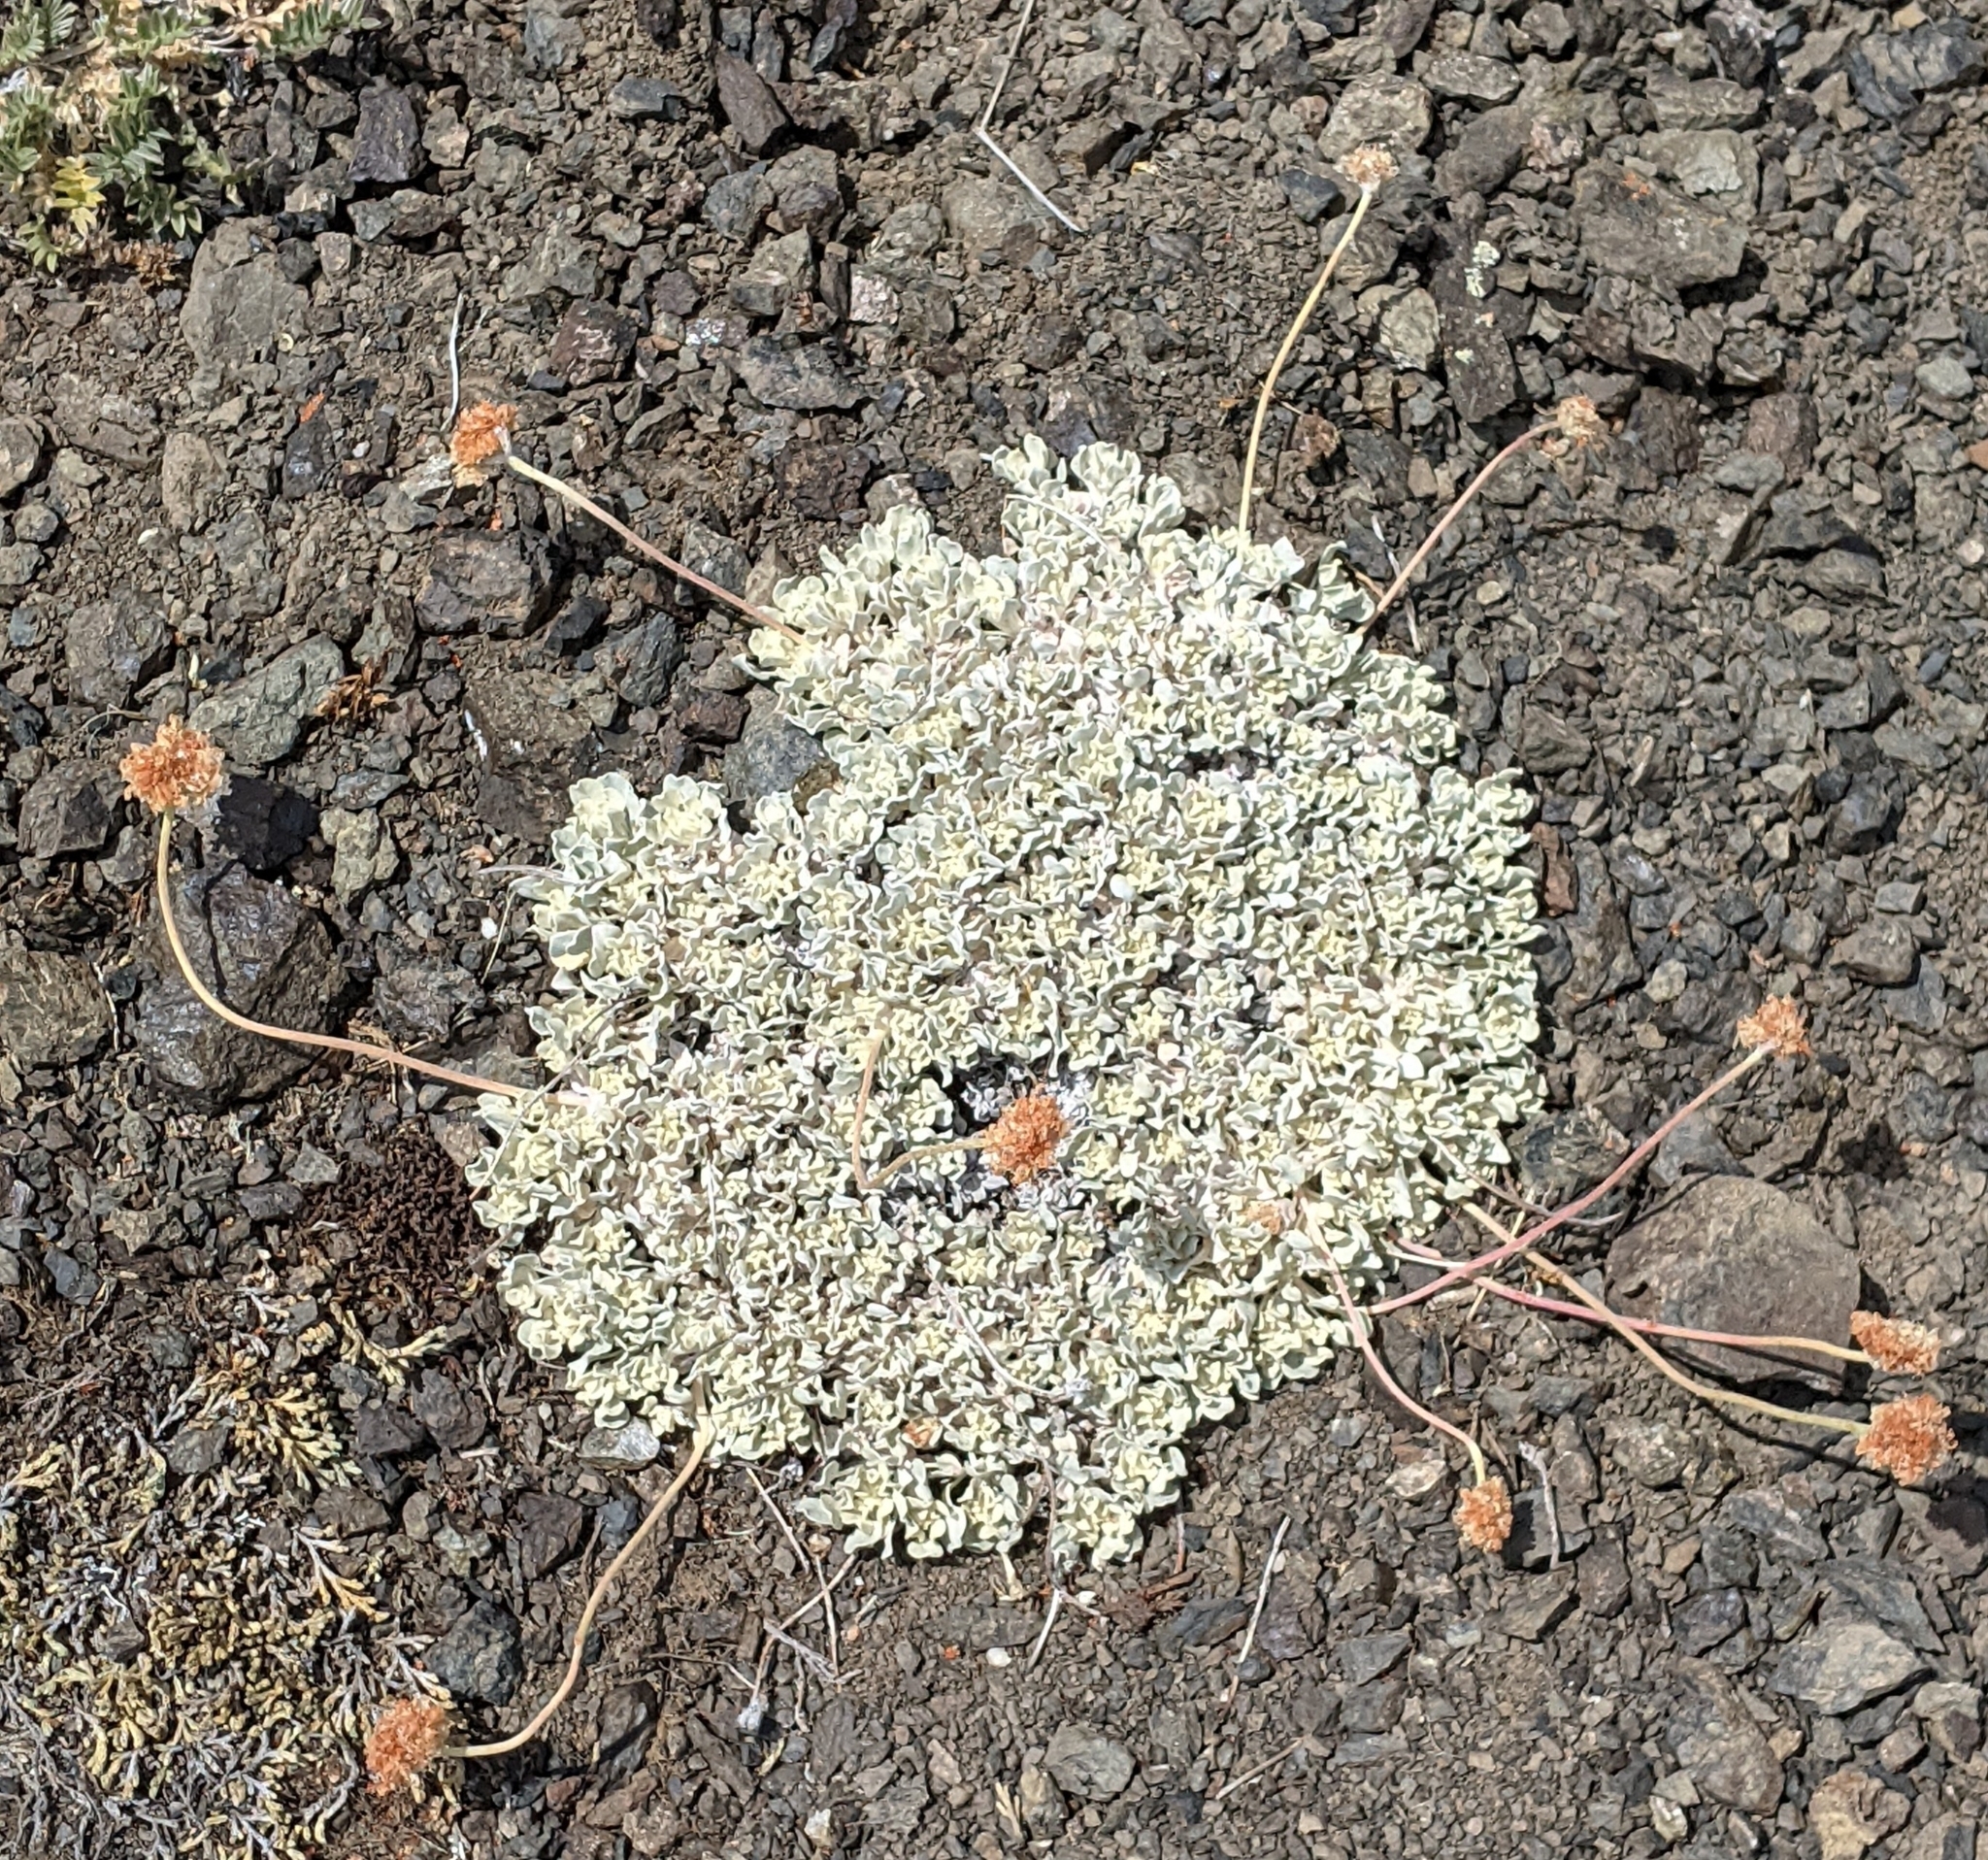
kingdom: Plantae
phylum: Tracheophyta
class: Magnoliopsida
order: Caryophyllales
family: Polygonaceae
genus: Eriogonum
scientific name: Eriogonum ovalifolium
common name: Cushion buckwheat
